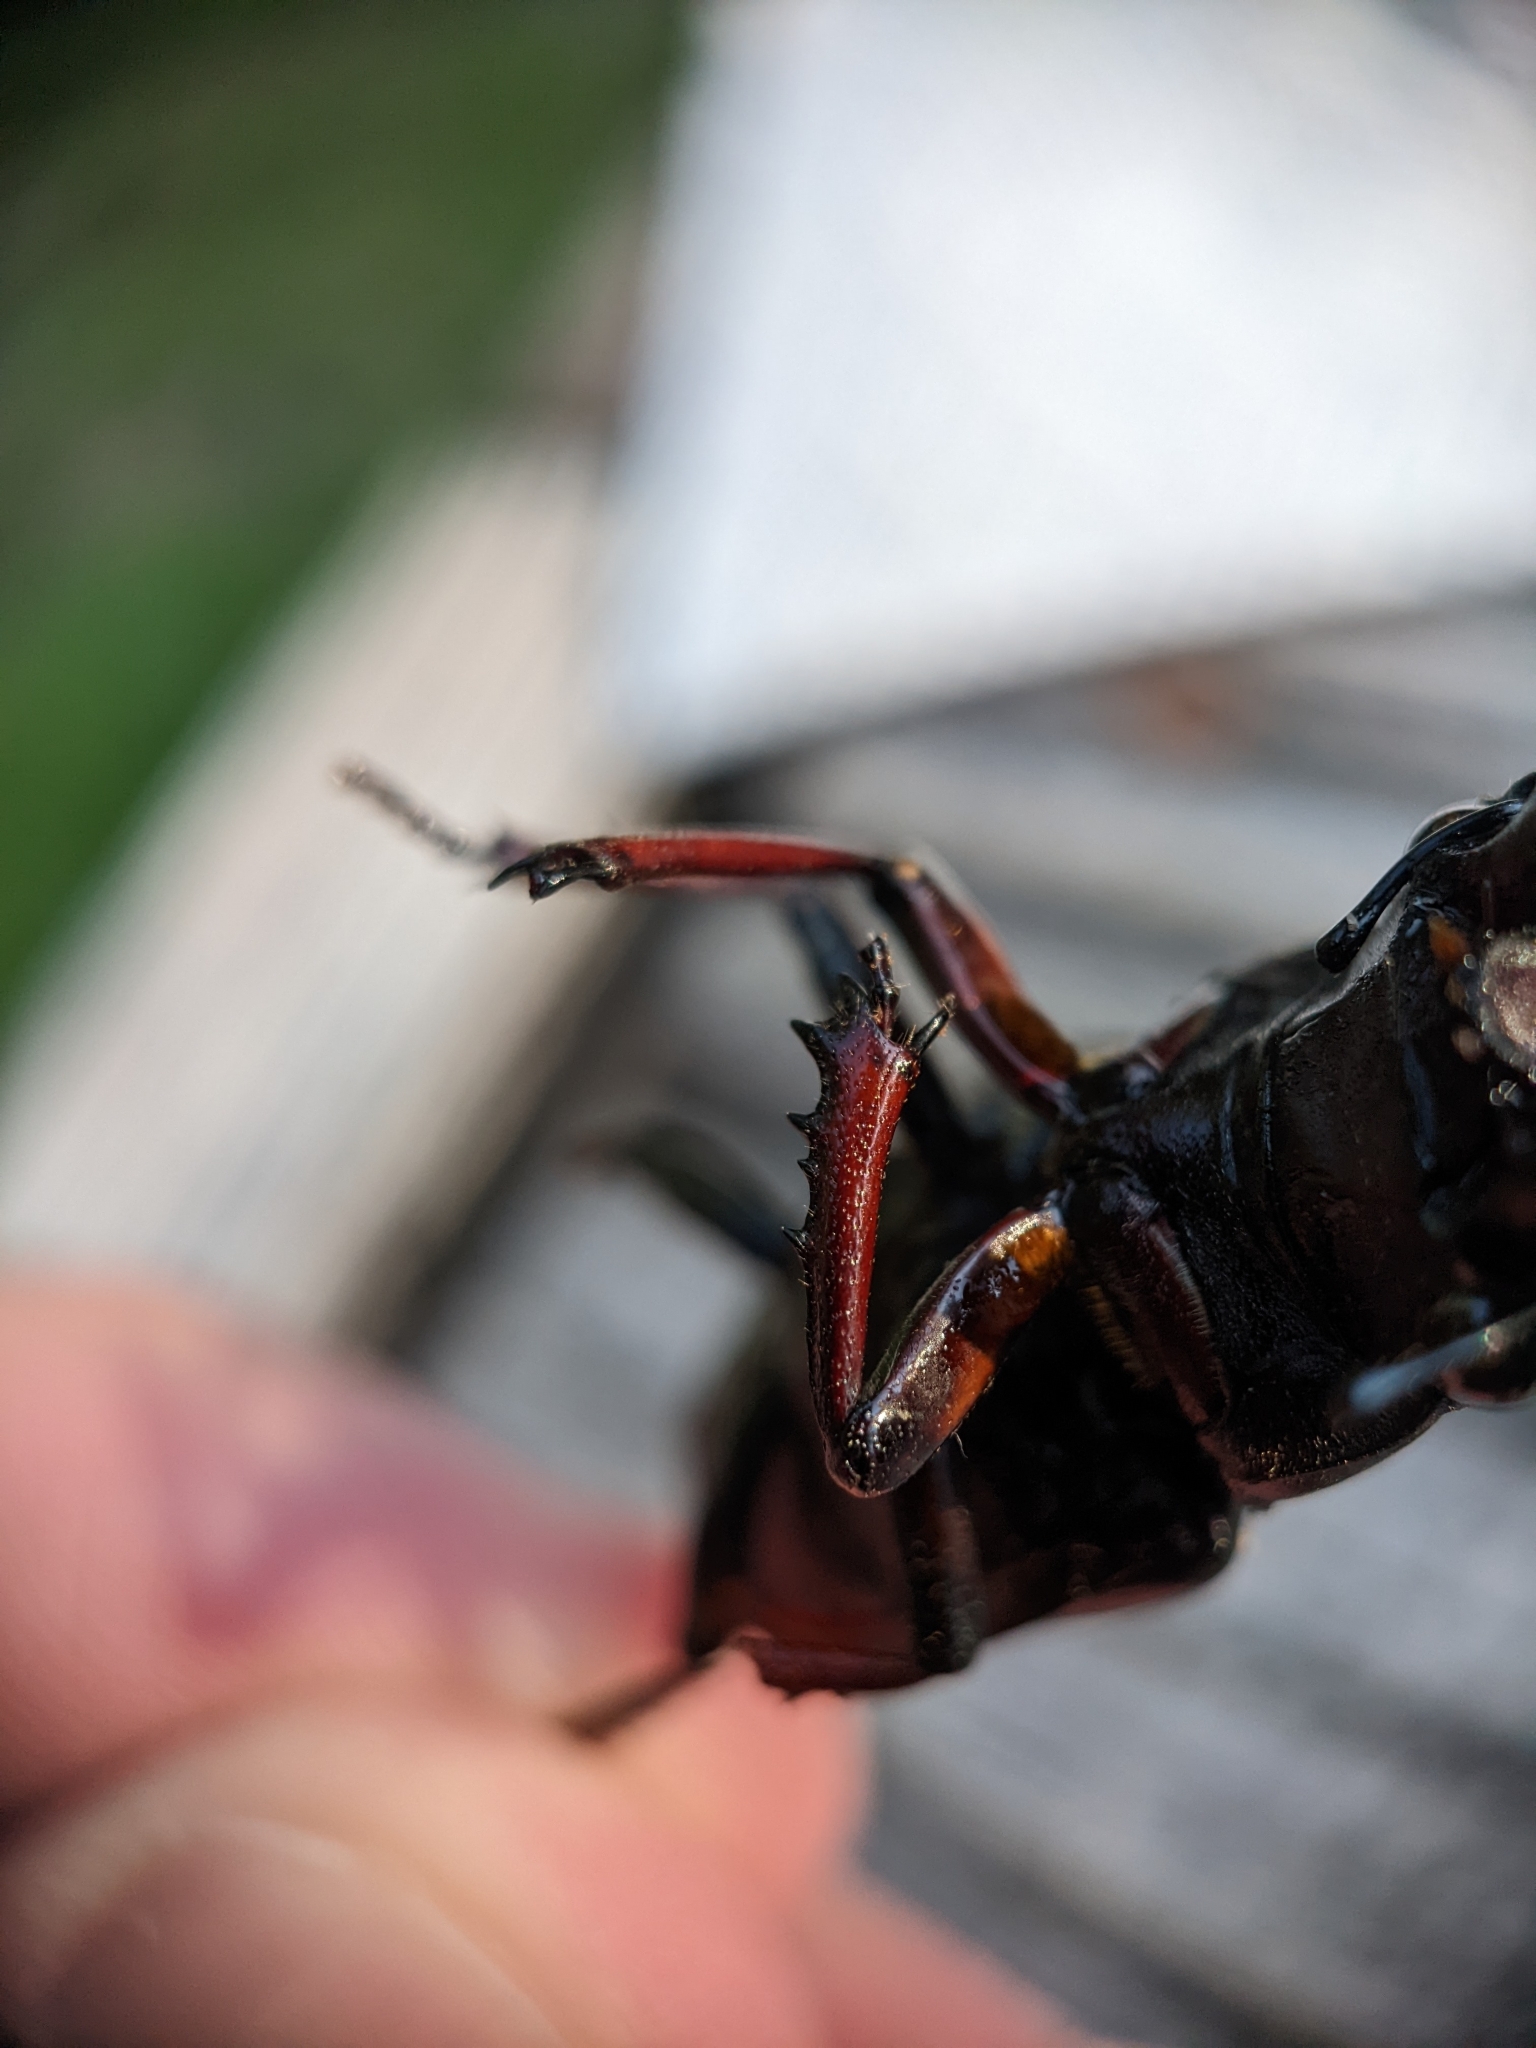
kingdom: Animalia
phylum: Arthropoda
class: Insecta
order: Coleoptera
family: Lucanidae
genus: Lucanus
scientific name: Lucanus capreolus
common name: Stag beetle
